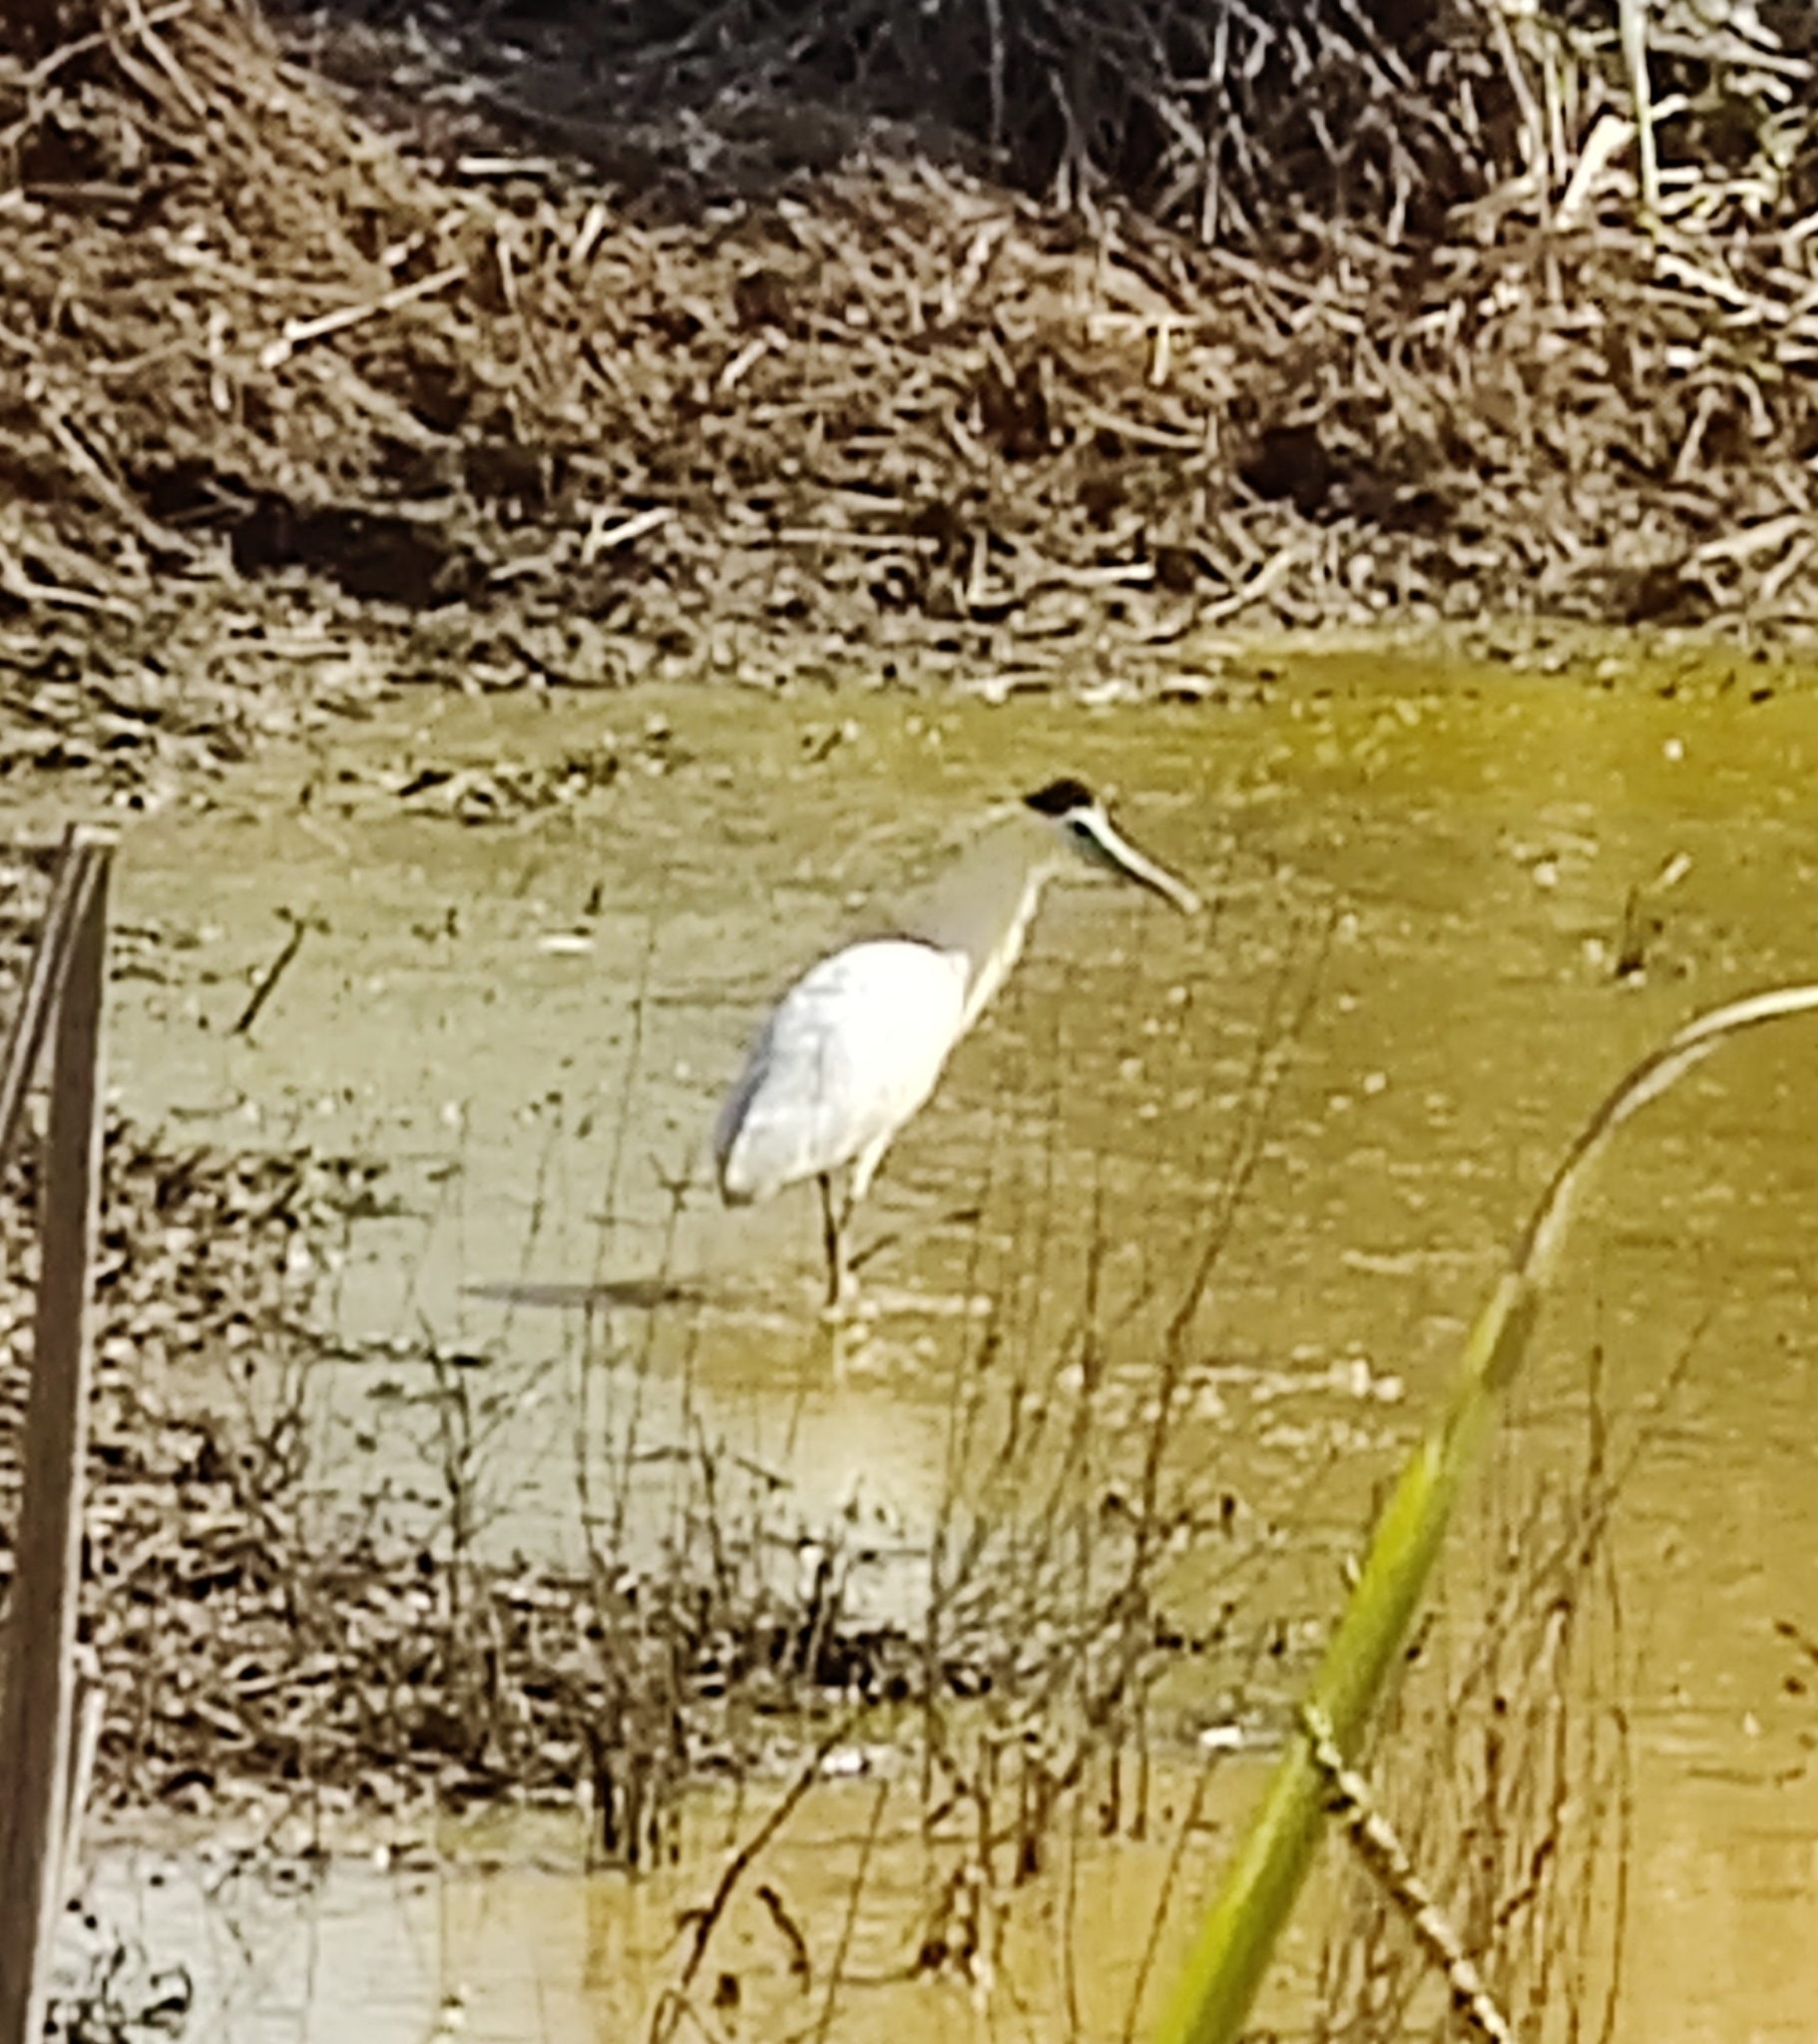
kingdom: Animalia
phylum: Chordata
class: Aves
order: Pelecaniformes
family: Ardeidae
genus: Pilherodius
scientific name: Pilherodius pileatus
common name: Capped heron
